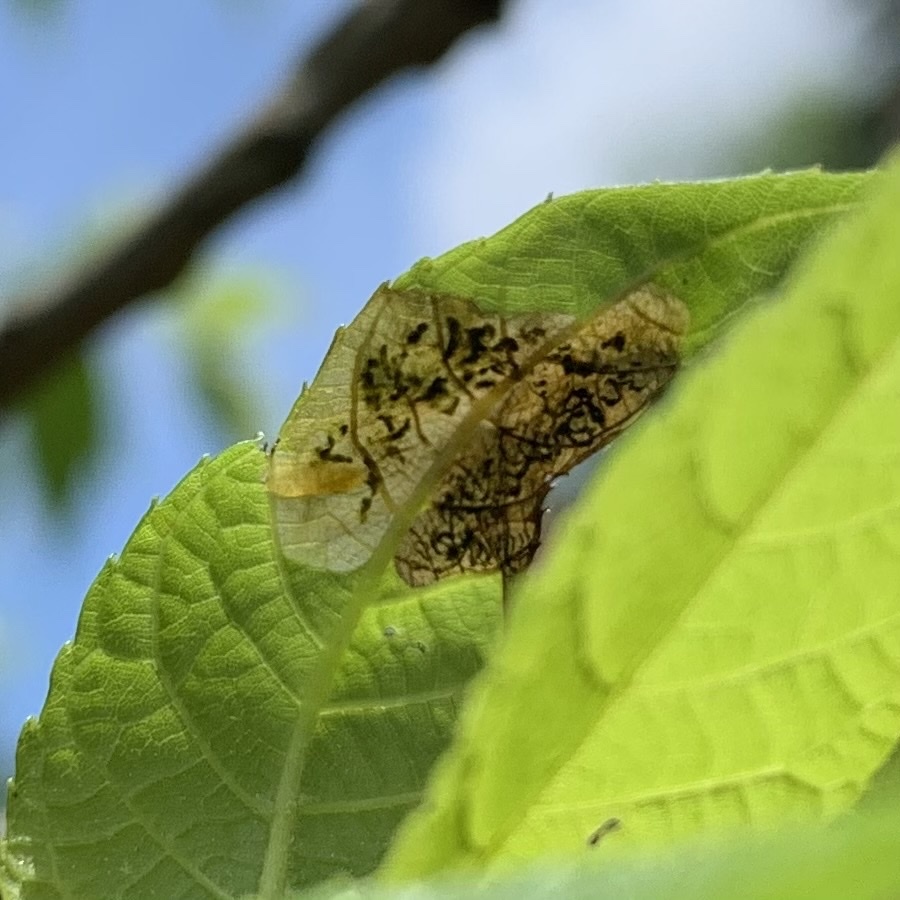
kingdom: Animalia
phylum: Arthropoda
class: Insecta
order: Diptera
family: Agromyzidae
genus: Japanagromyza
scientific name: Japanagromyza viridula
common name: Oak shothole leafminer
